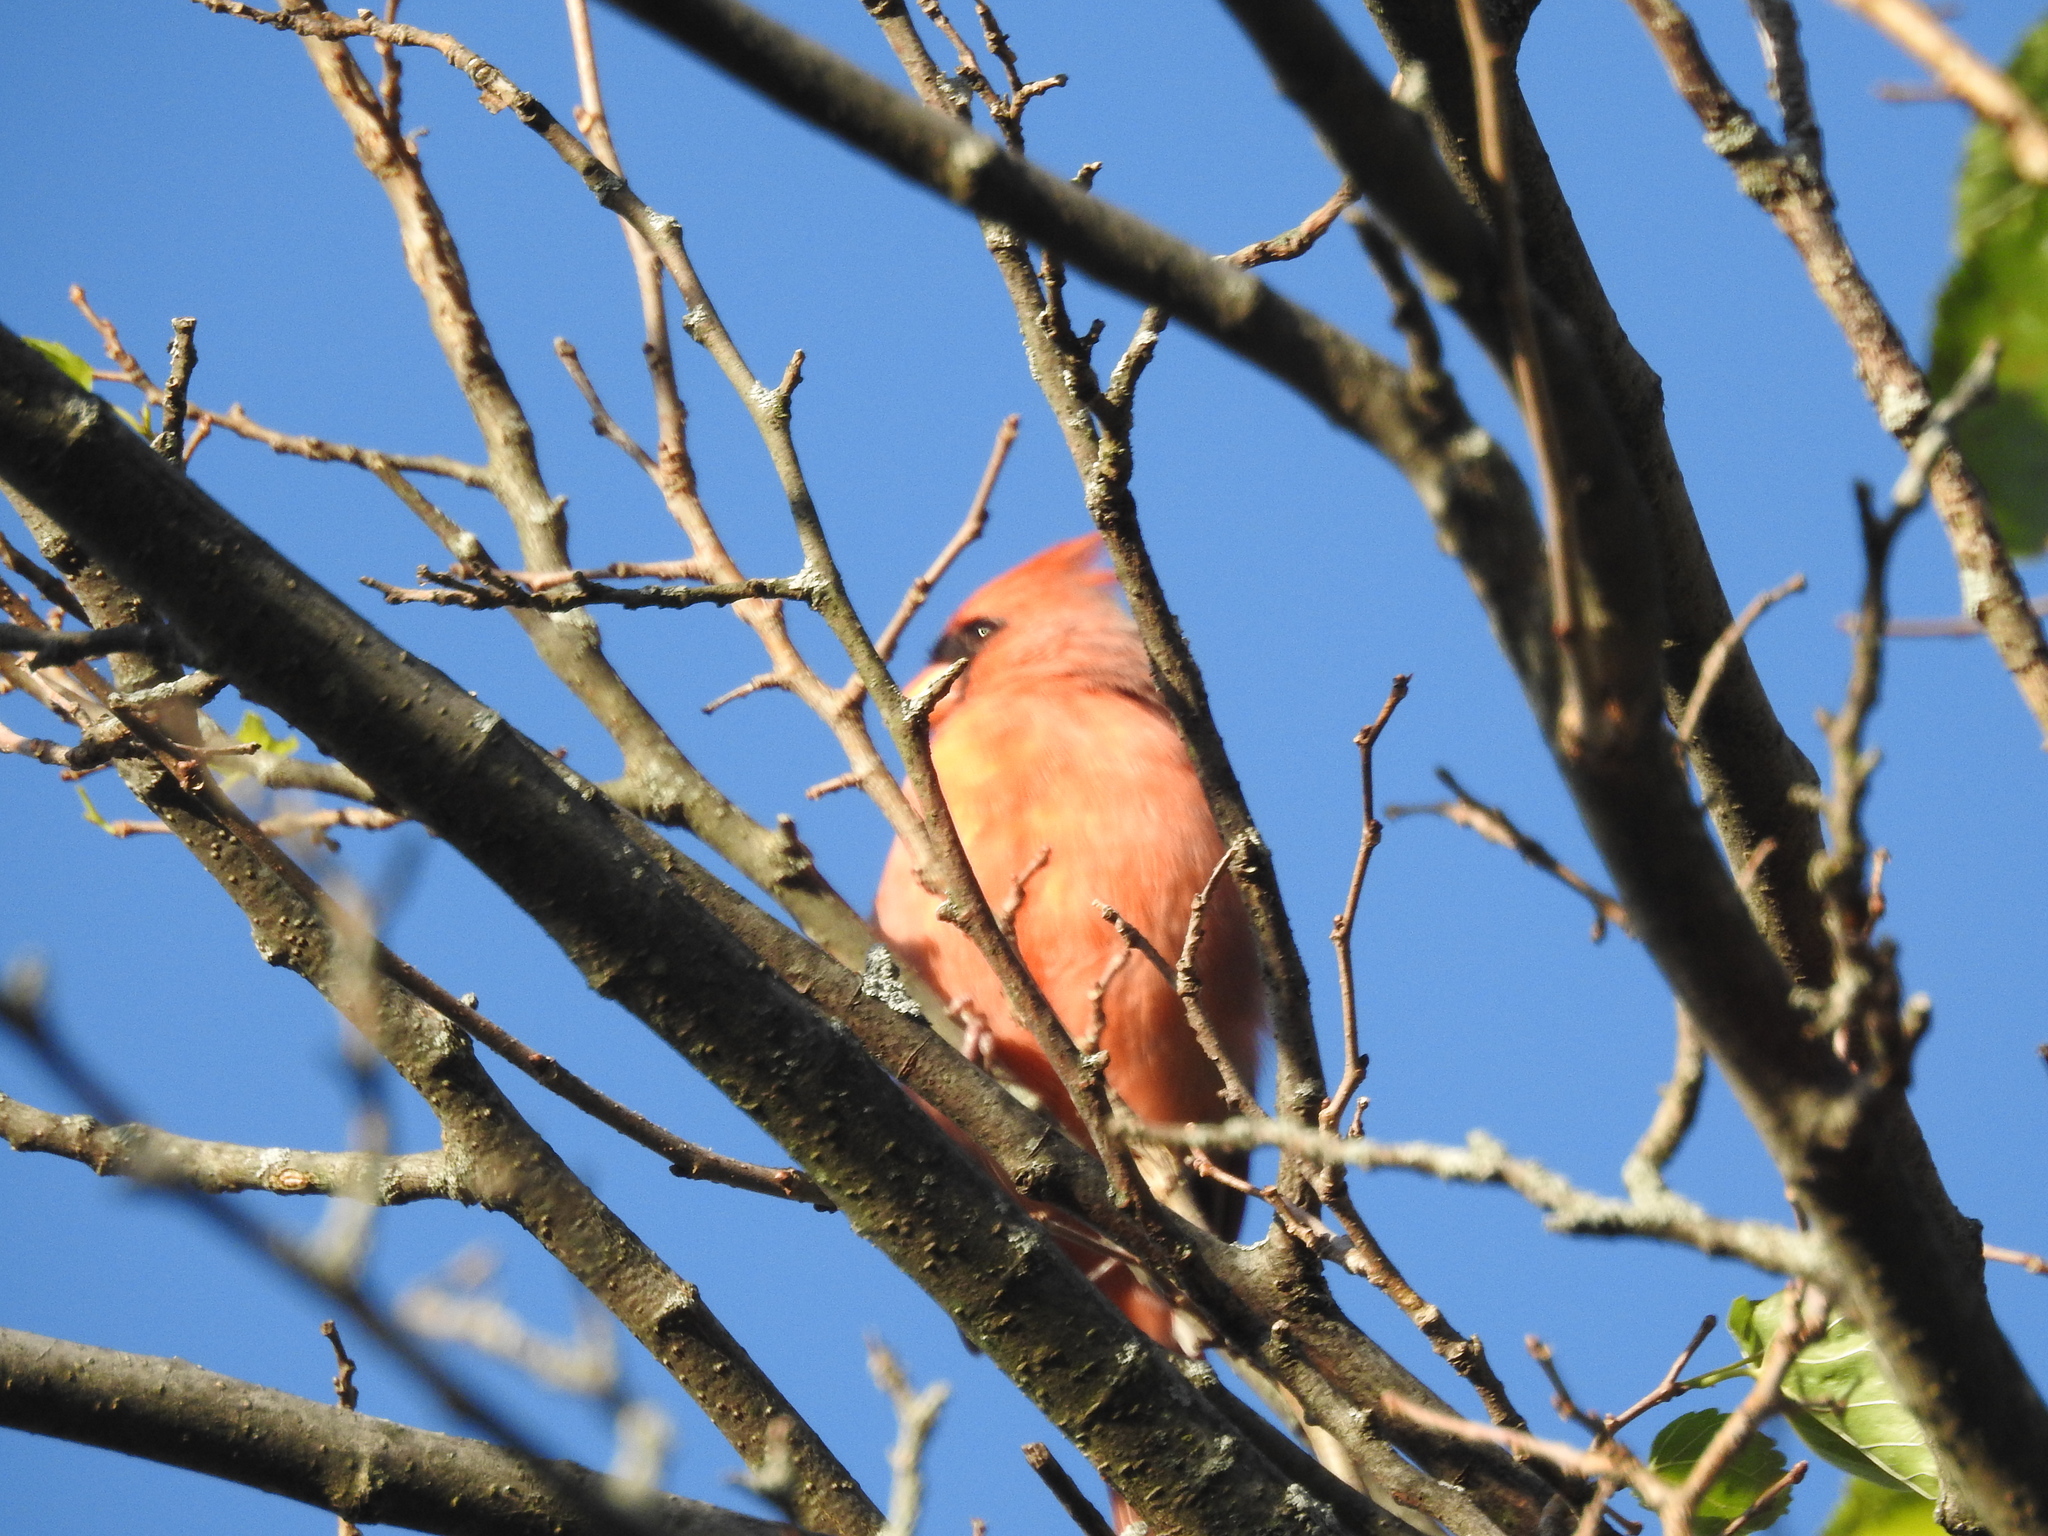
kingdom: Animalia
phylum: Chordata
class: Aves
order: Passeriformes
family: Cardinalidae
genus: Cardinalis
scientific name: Cardinalis cardinalis
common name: Northern cardinal
